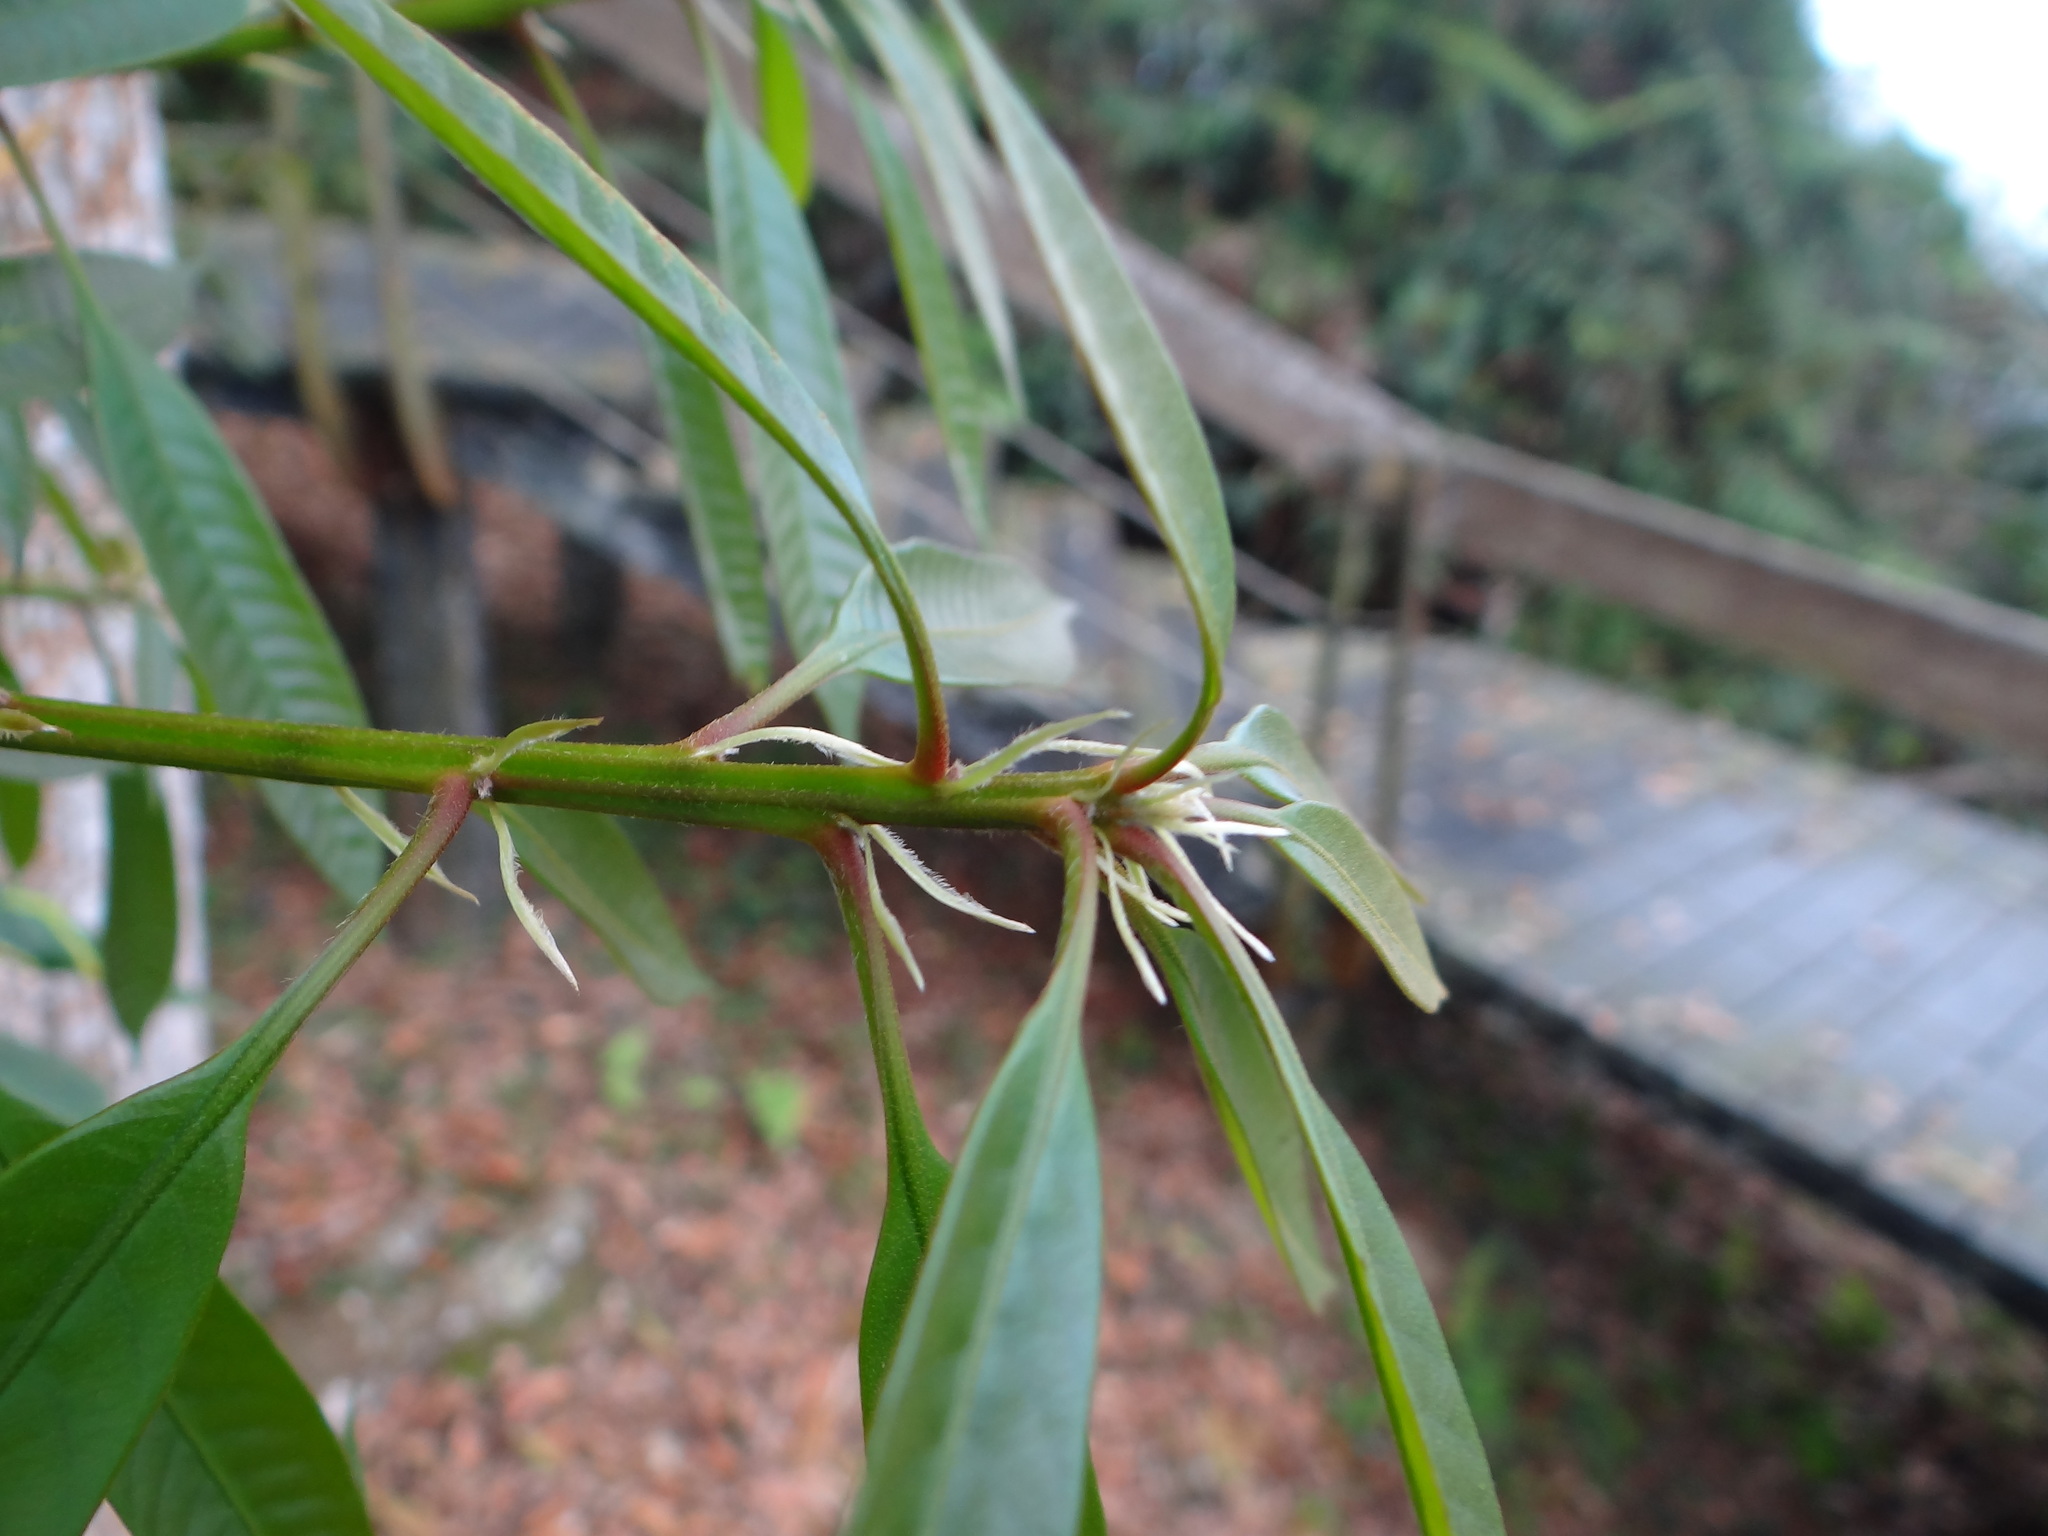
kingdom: Plantae
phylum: Tracheophyta
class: Magnoliopsida
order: Fagales
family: Fagaceae
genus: Lithocarpus
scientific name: Lithocarpus brevicaudatus
